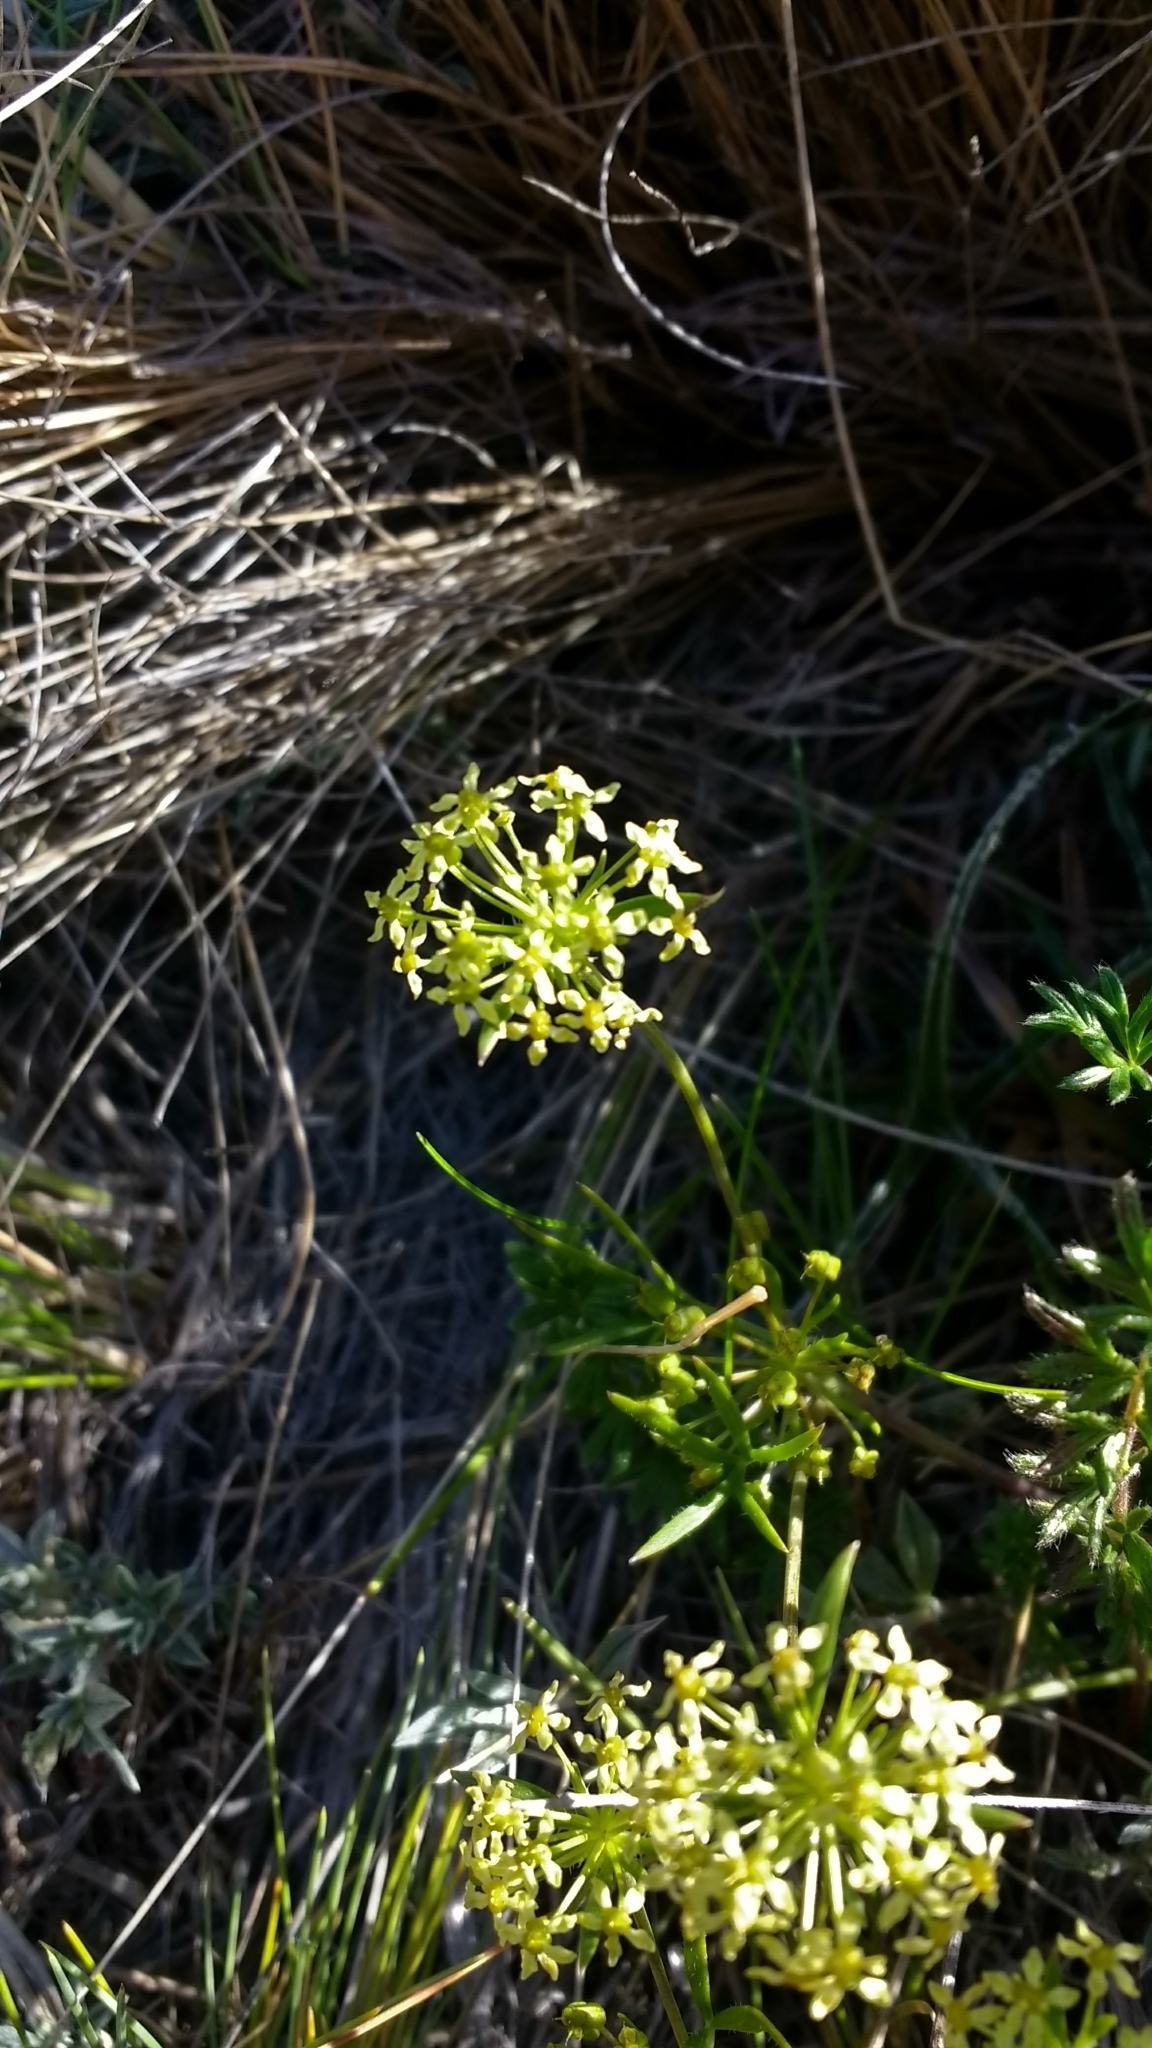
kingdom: Plantae
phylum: Tracheophyta
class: Magnoliopsida
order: Apiales
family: Apiaceae
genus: Azorella
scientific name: Azorella acaulis
